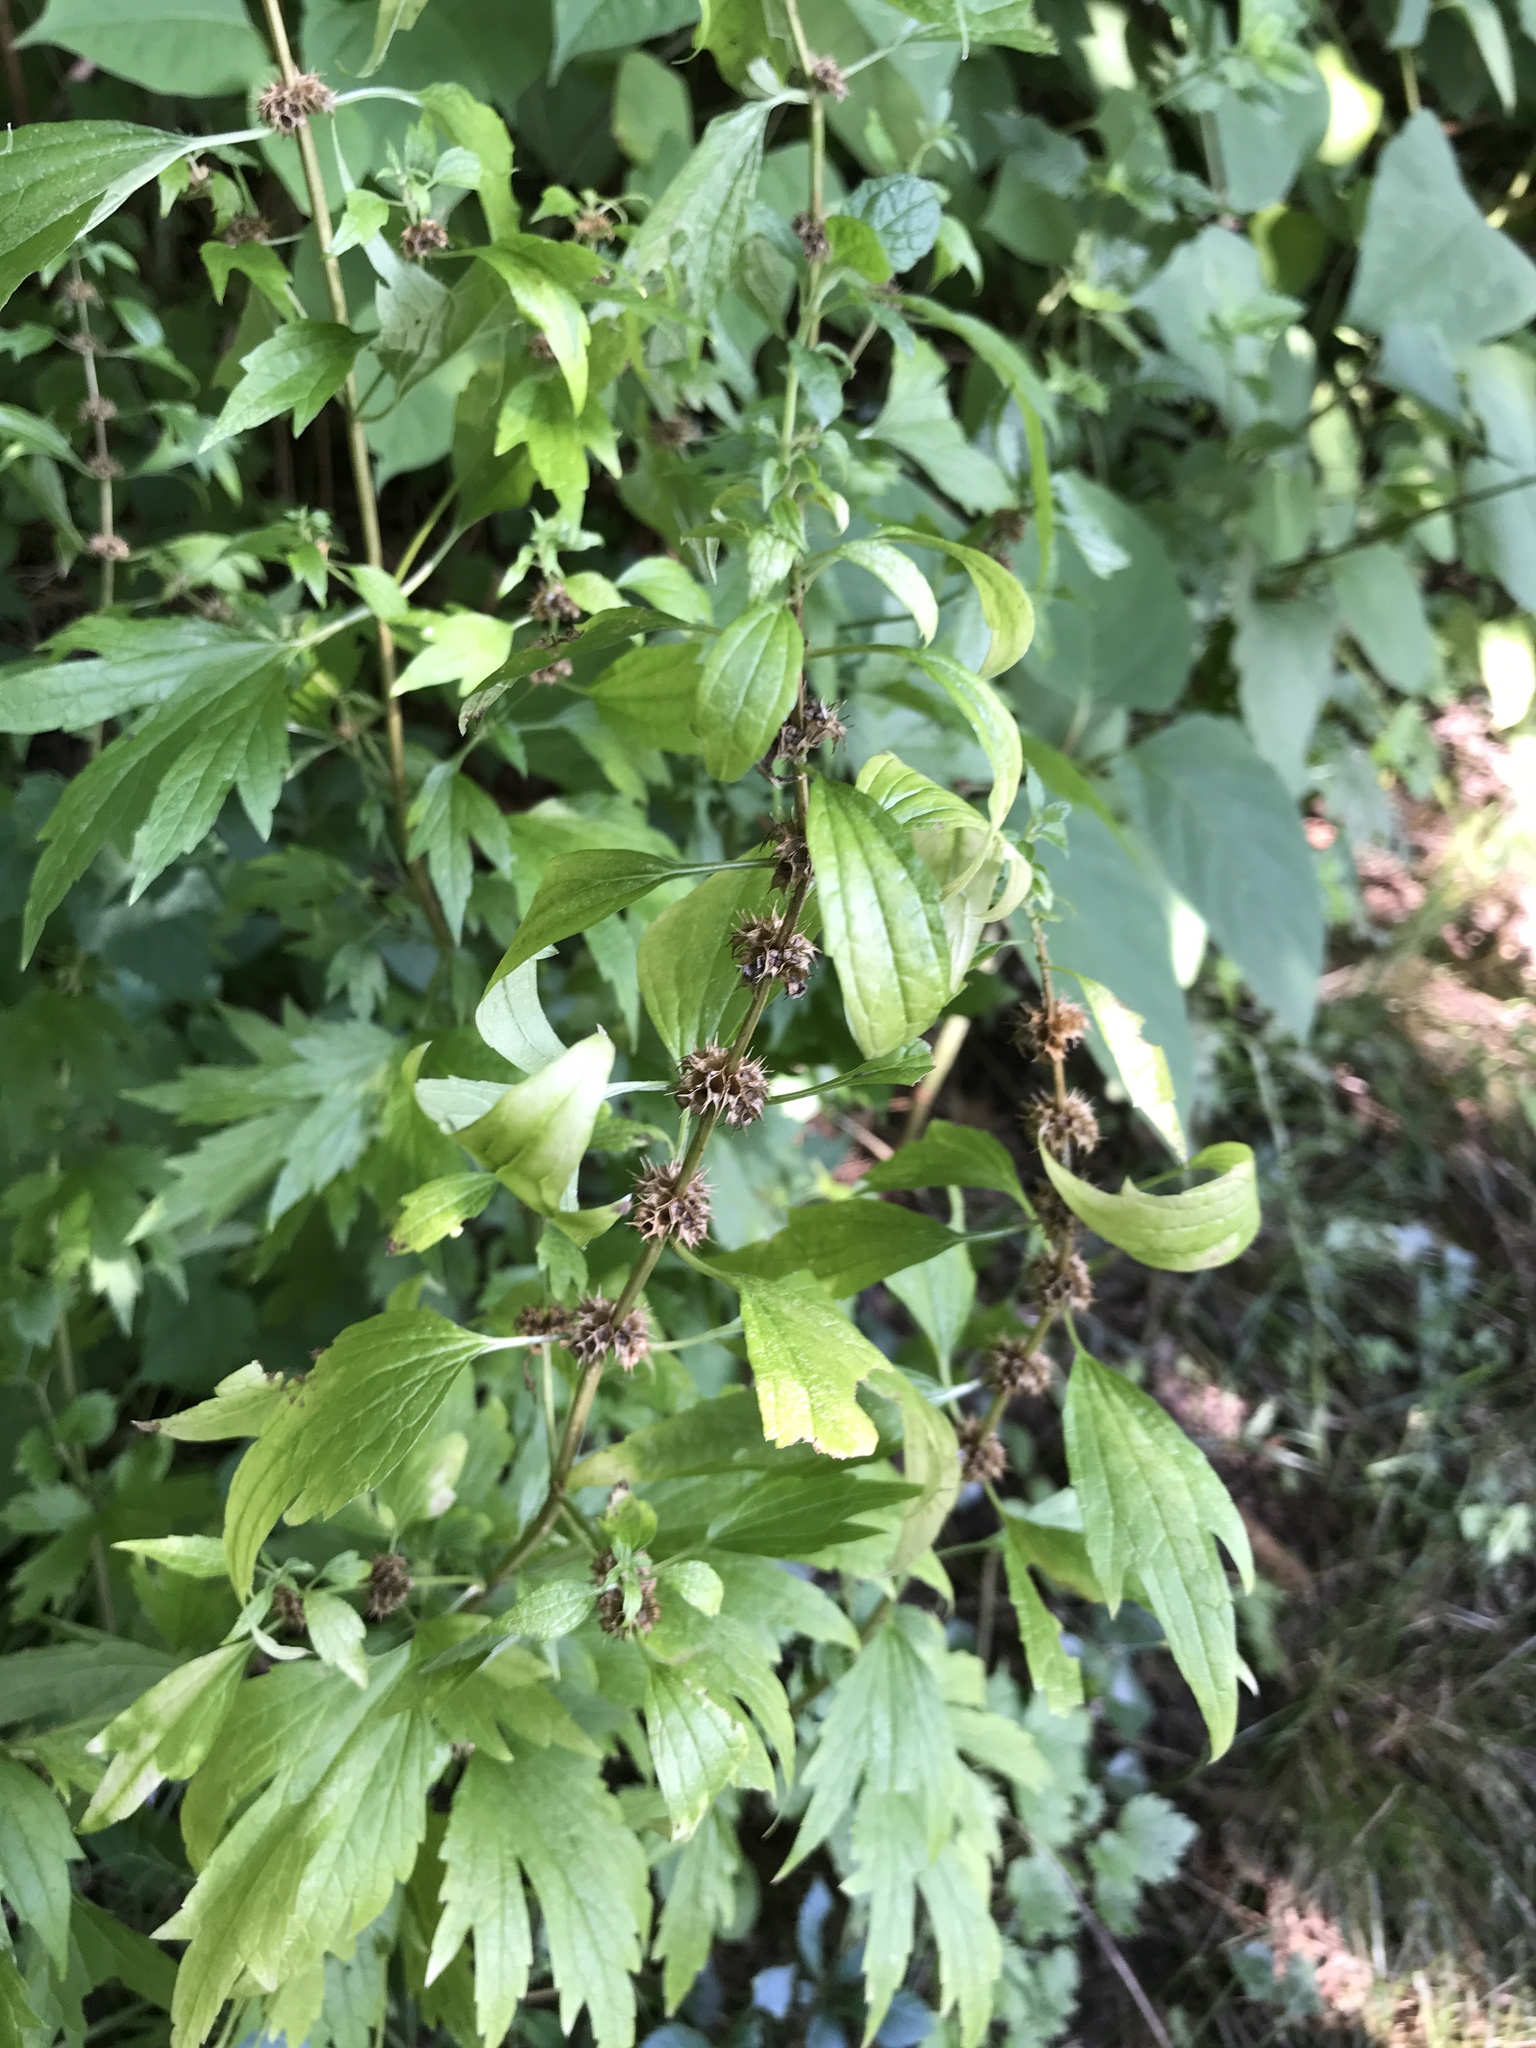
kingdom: Plantae
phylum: Tracheophyta
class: Magnoliopsida
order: Lamiales
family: Lamiaceae
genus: Leonurus
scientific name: Leonurus cardiaca
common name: Motherwort
